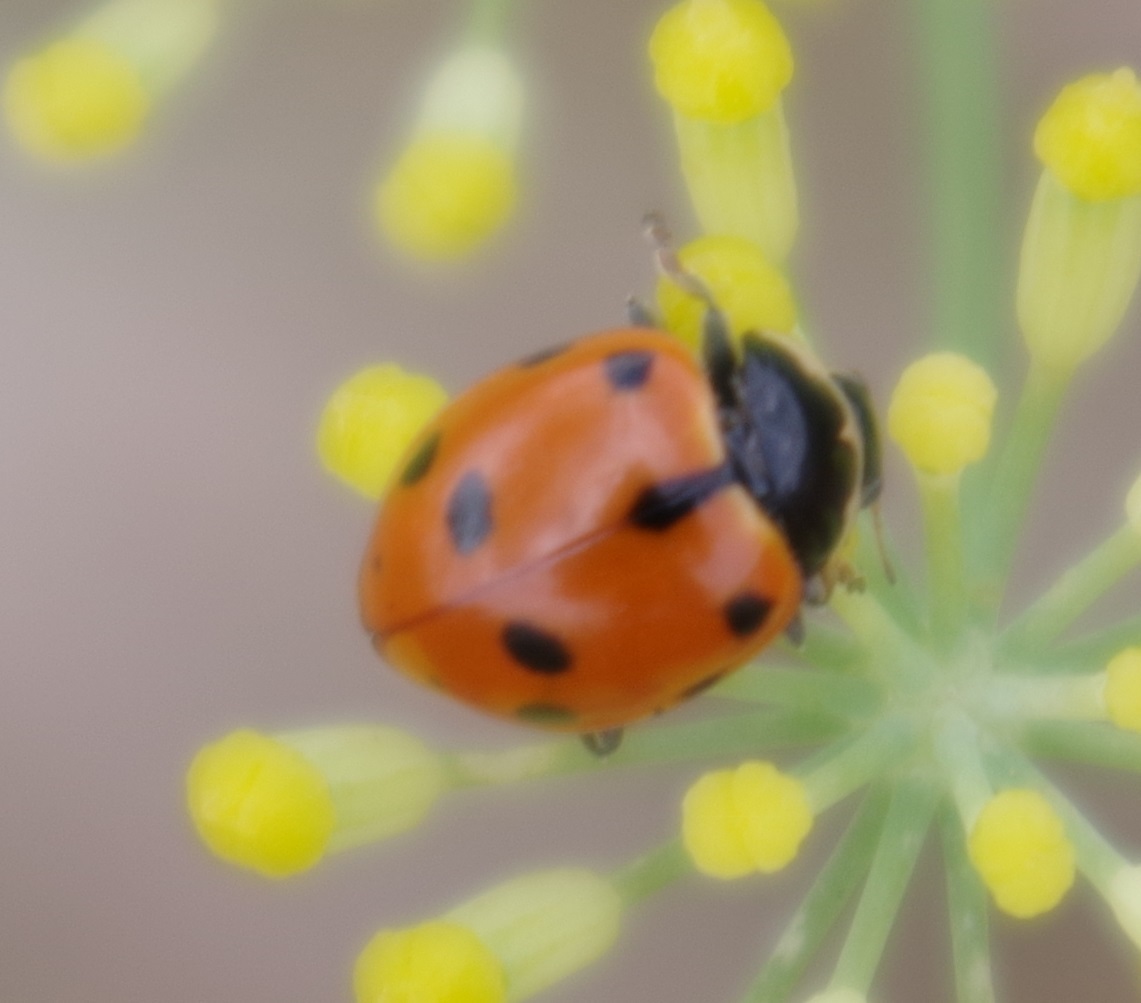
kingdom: Animalia
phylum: Arthropoda
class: Insecta
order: Coleoptera
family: Coccinellidae
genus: Ceratomegilla
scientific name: Ceratomegilla undecimnotata
